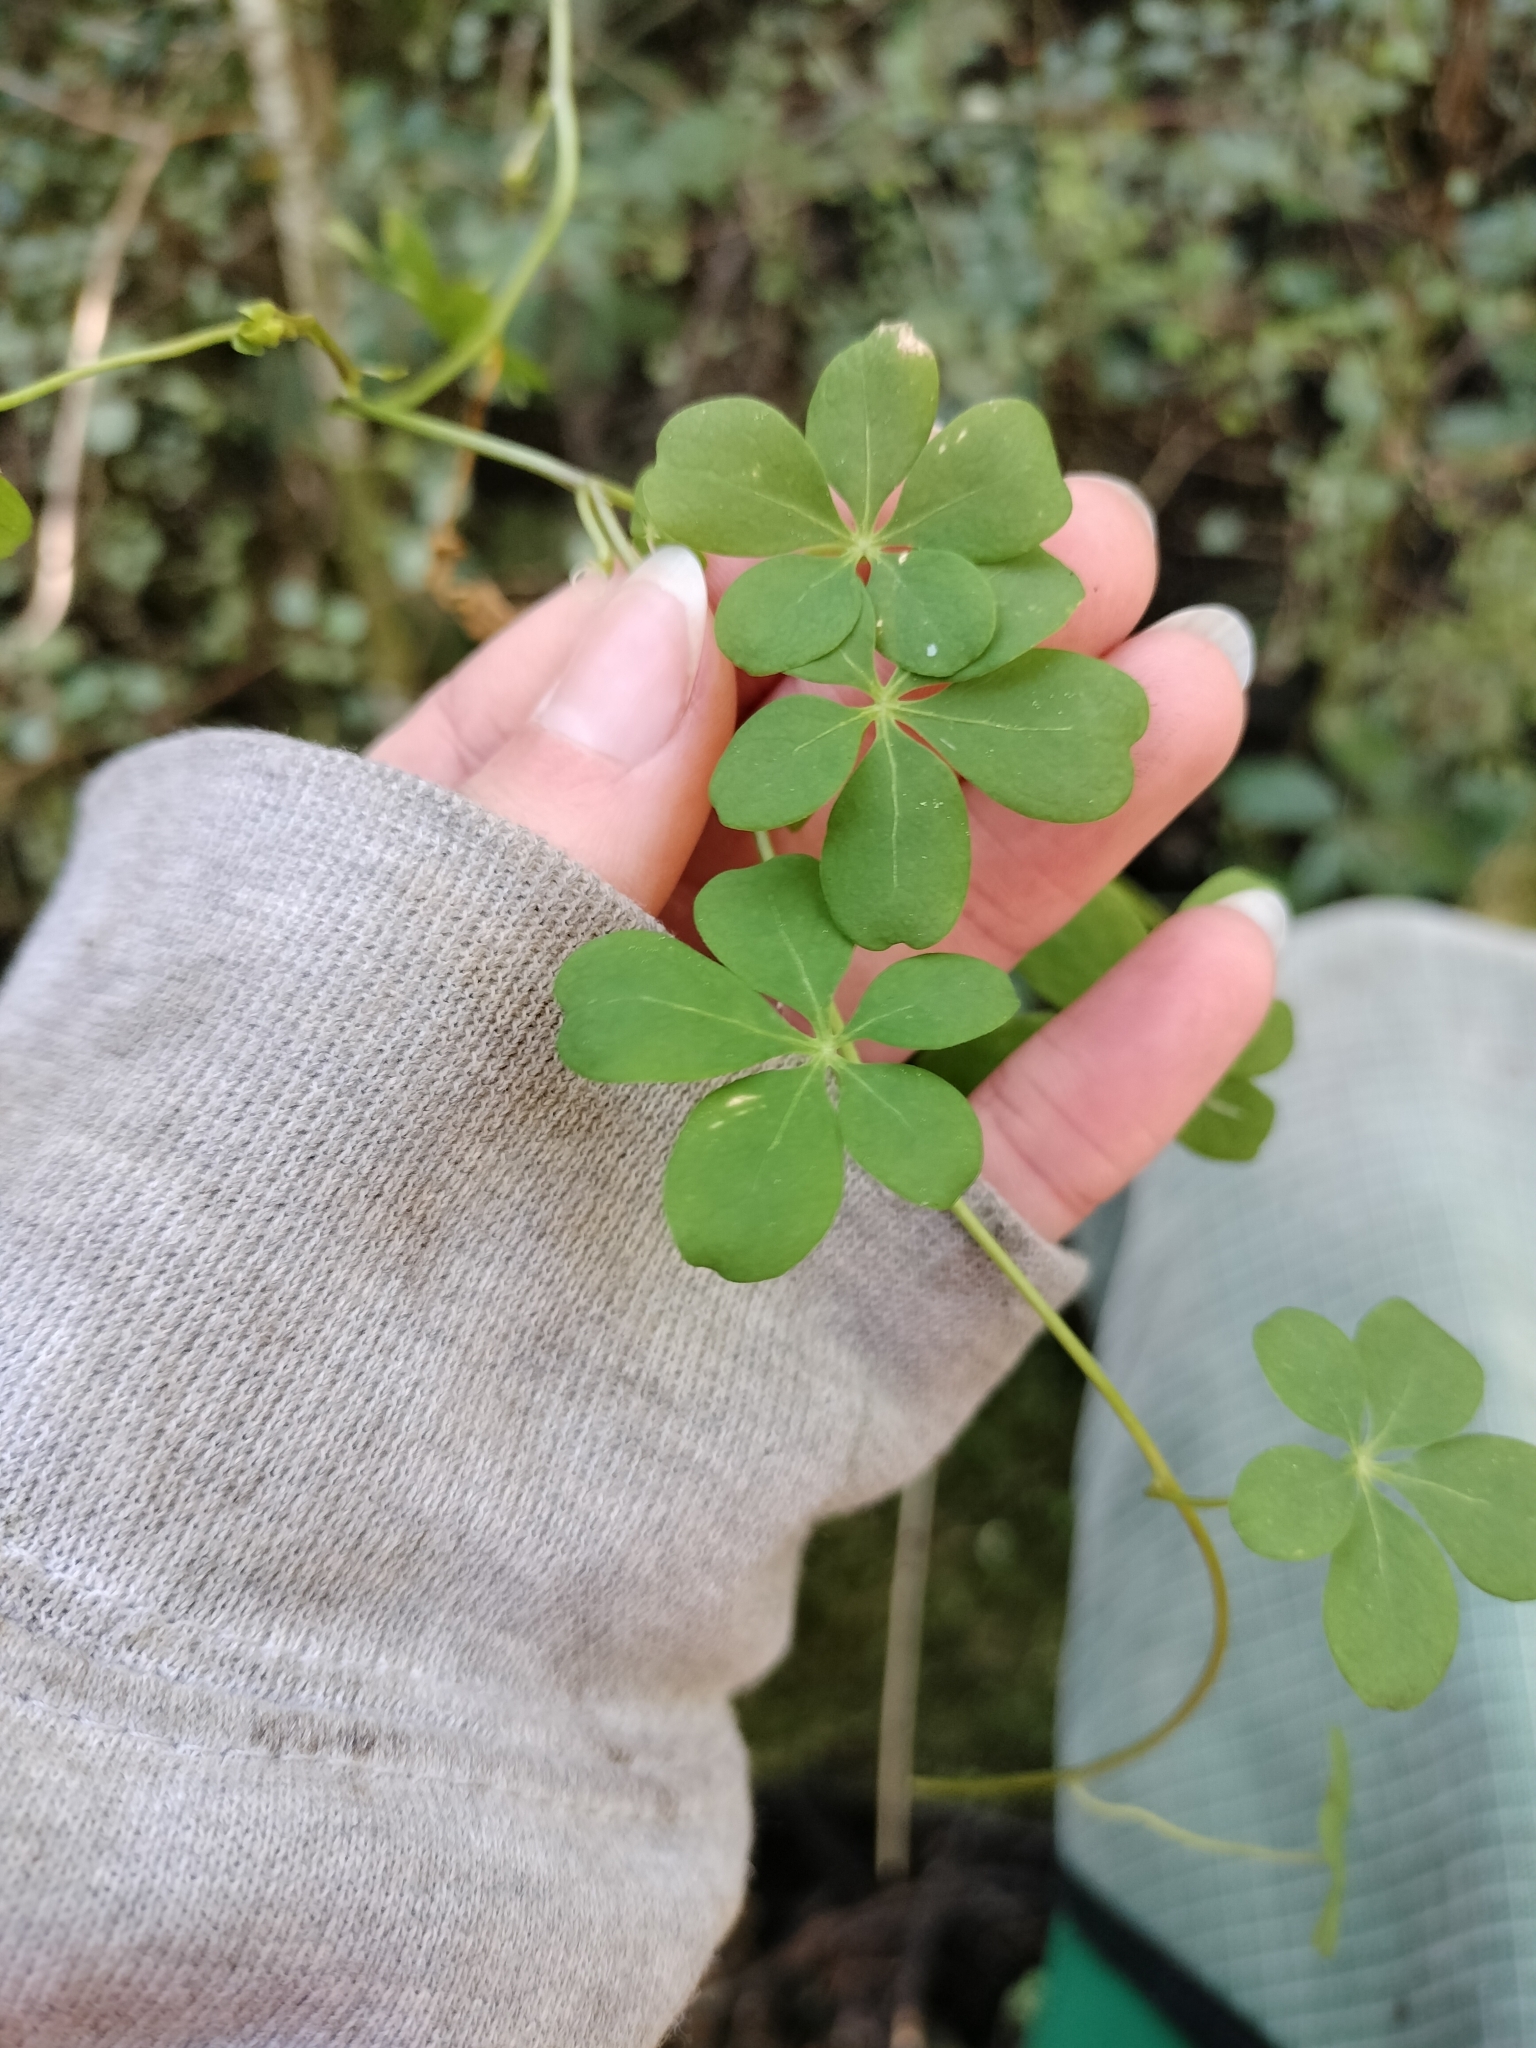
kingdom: Plantae
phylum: Tracheophyta
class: Magnoliopsida
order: Brassicales
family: Tropaeolaceae
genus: Tropaeolum
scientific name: Tropaeolum speciosum
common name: Flame nasturtium
